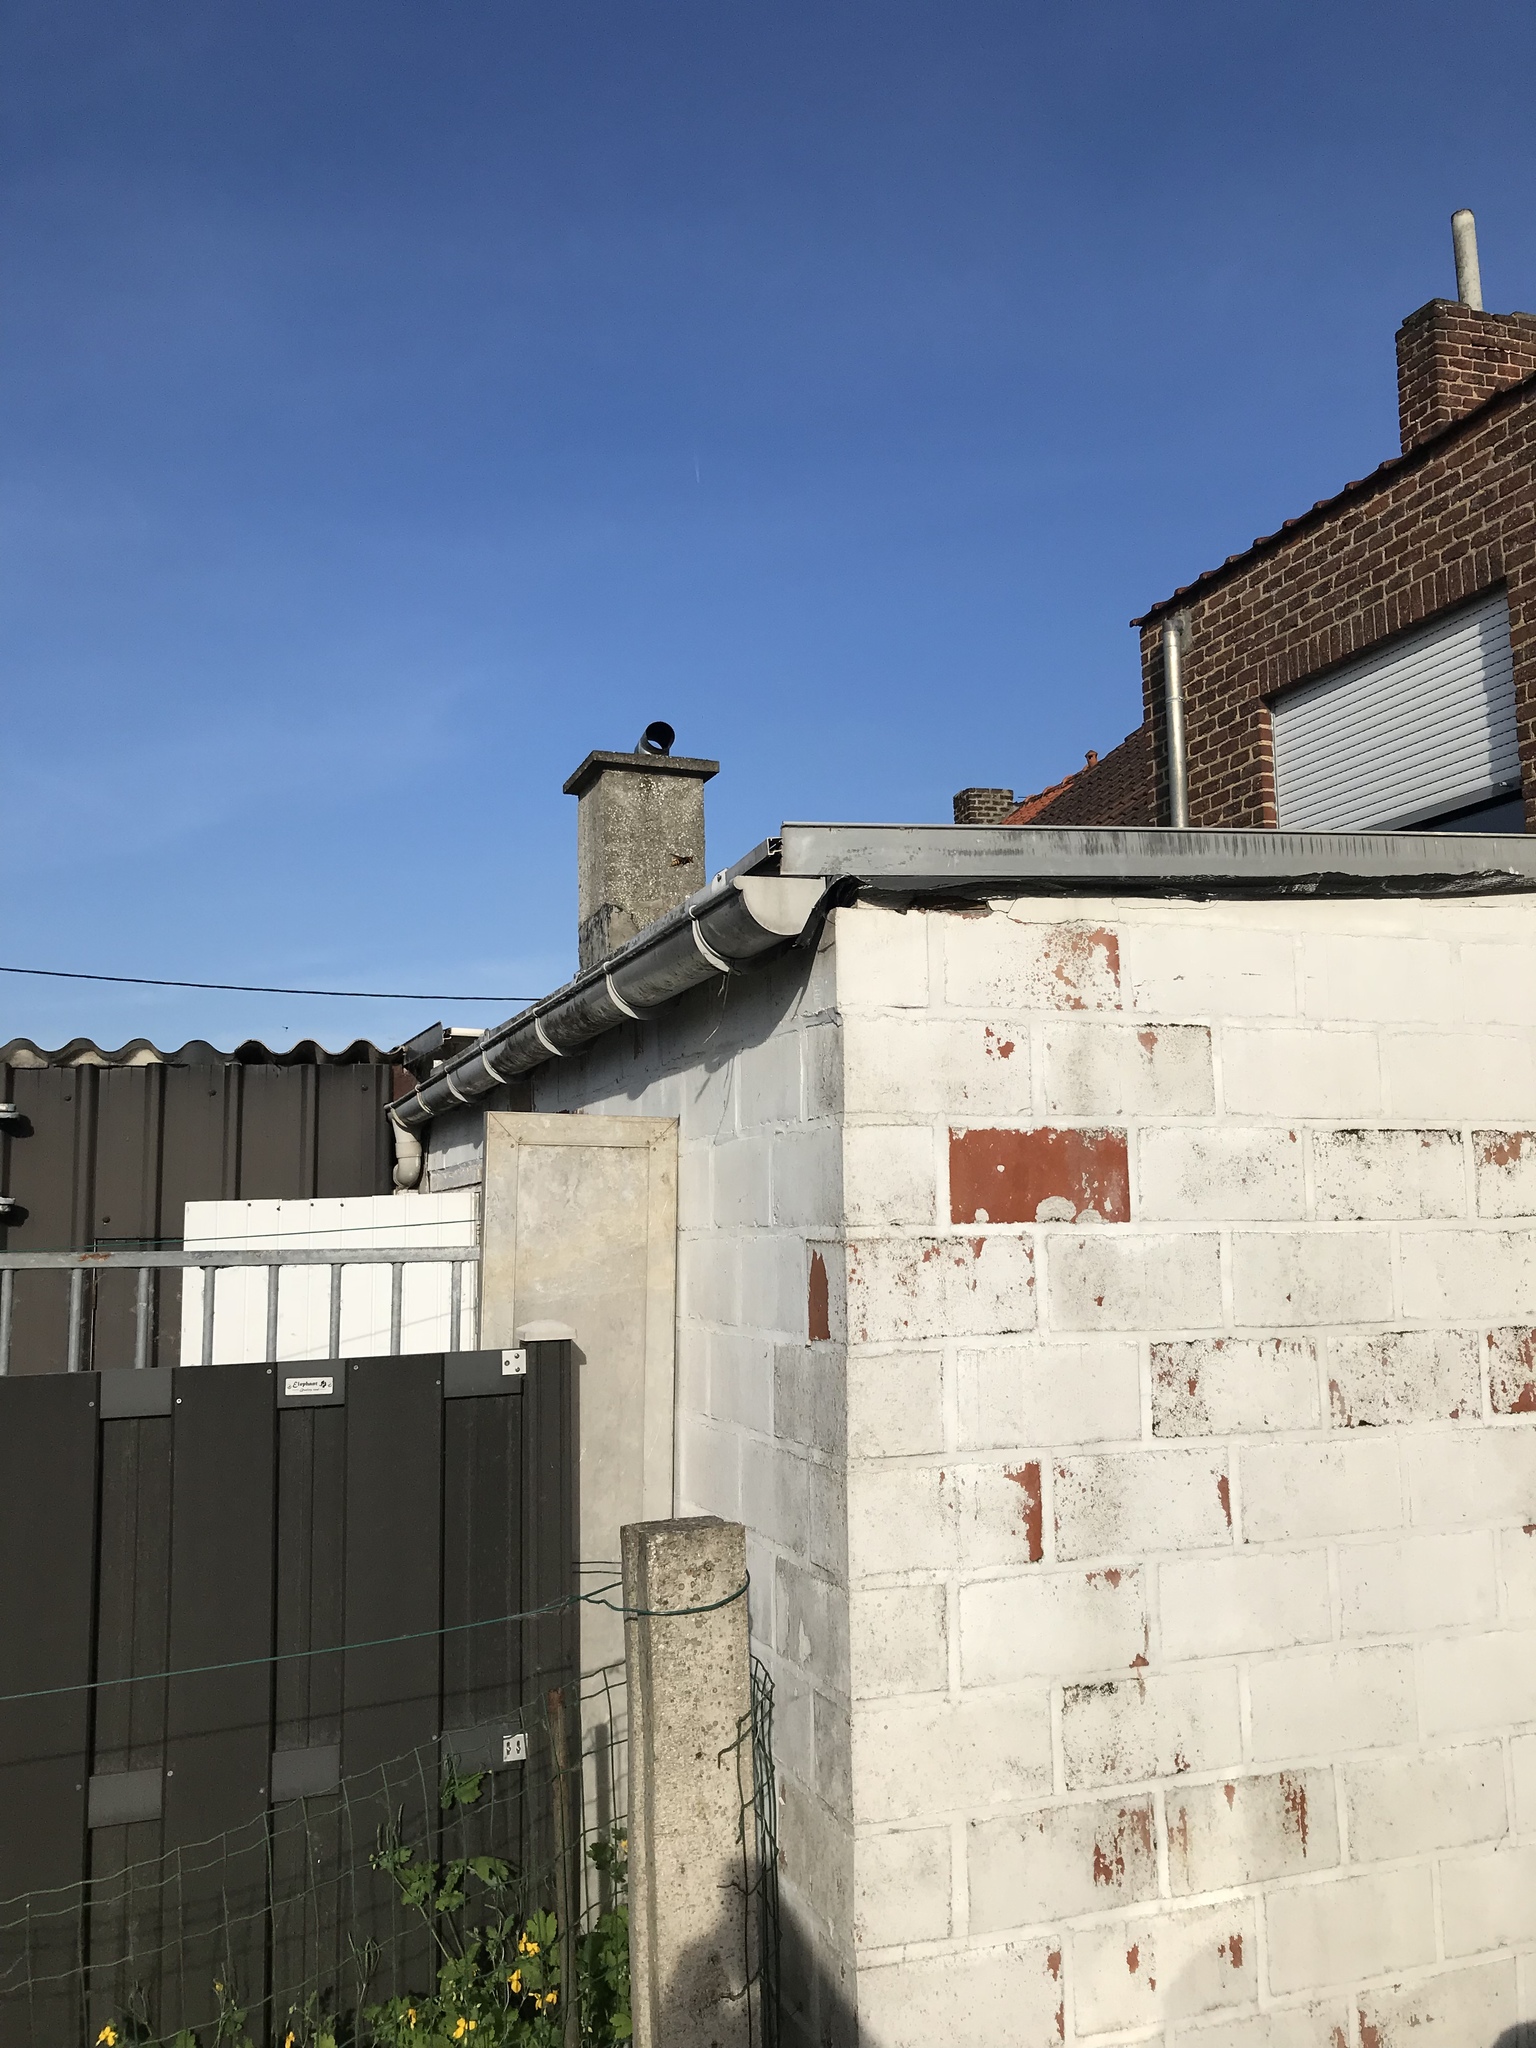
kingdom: Animalia
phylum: Arthropoda
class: Insecta
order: Hymenoptera
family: Vespidae
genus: Vespa
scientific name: Vespa crabro
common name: Hornet
